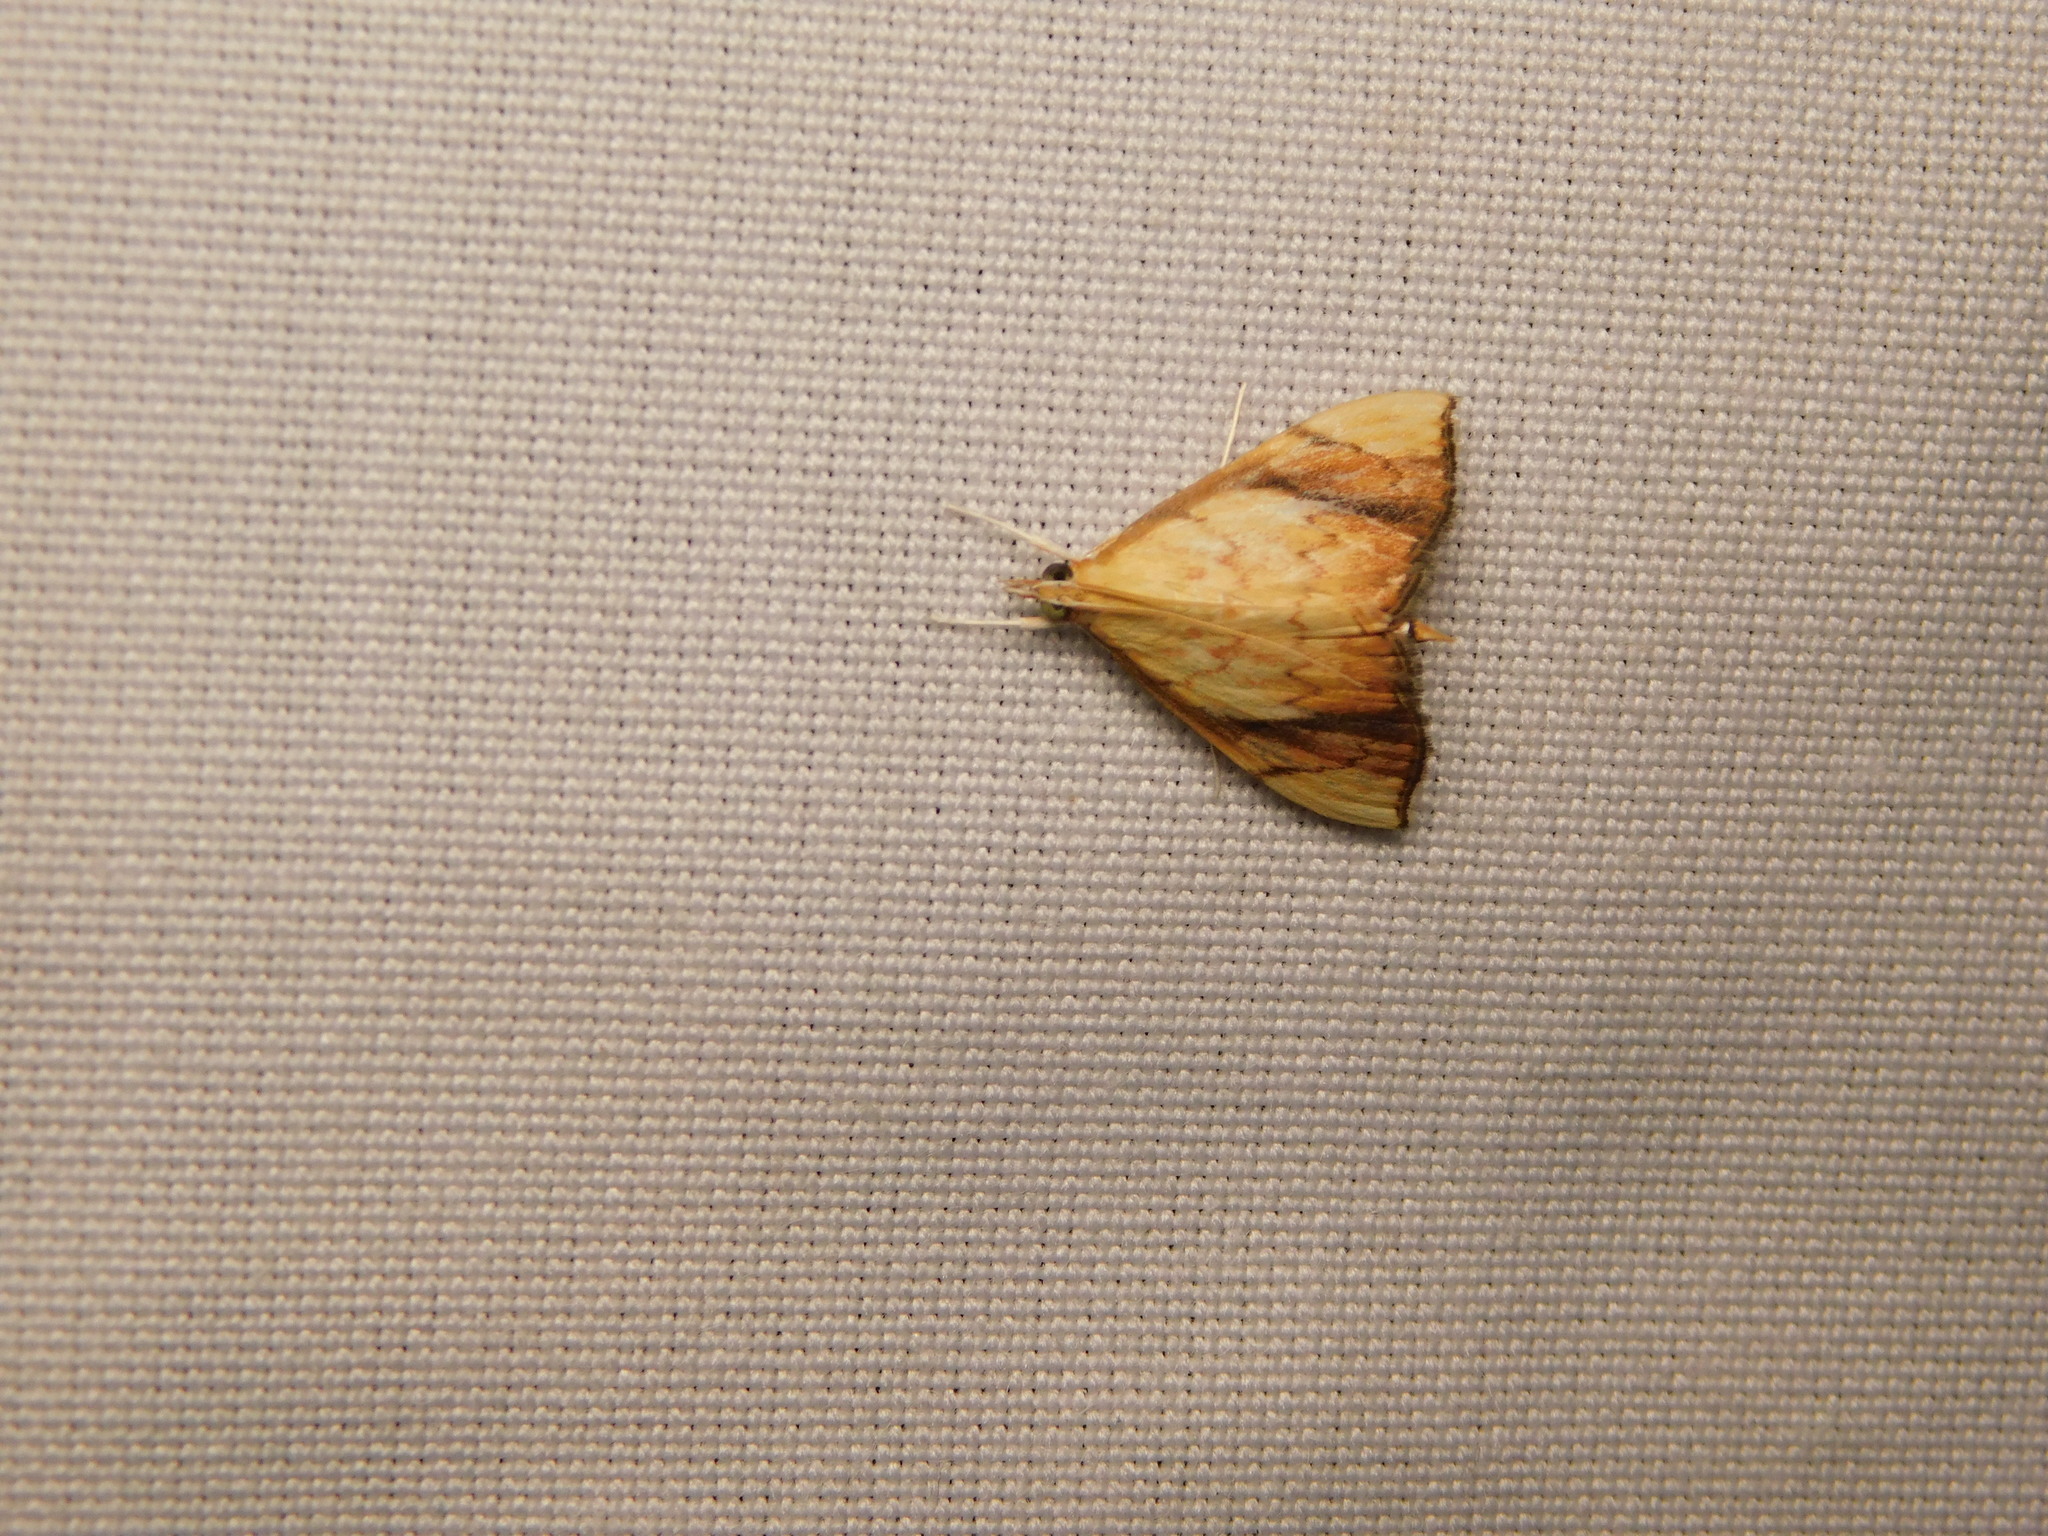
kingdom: Animalia
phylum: Arthropoda
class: Insecta
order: Lepidoptera
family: Crambidae
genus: Pyrausta
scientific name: Pyrausta obliquata
